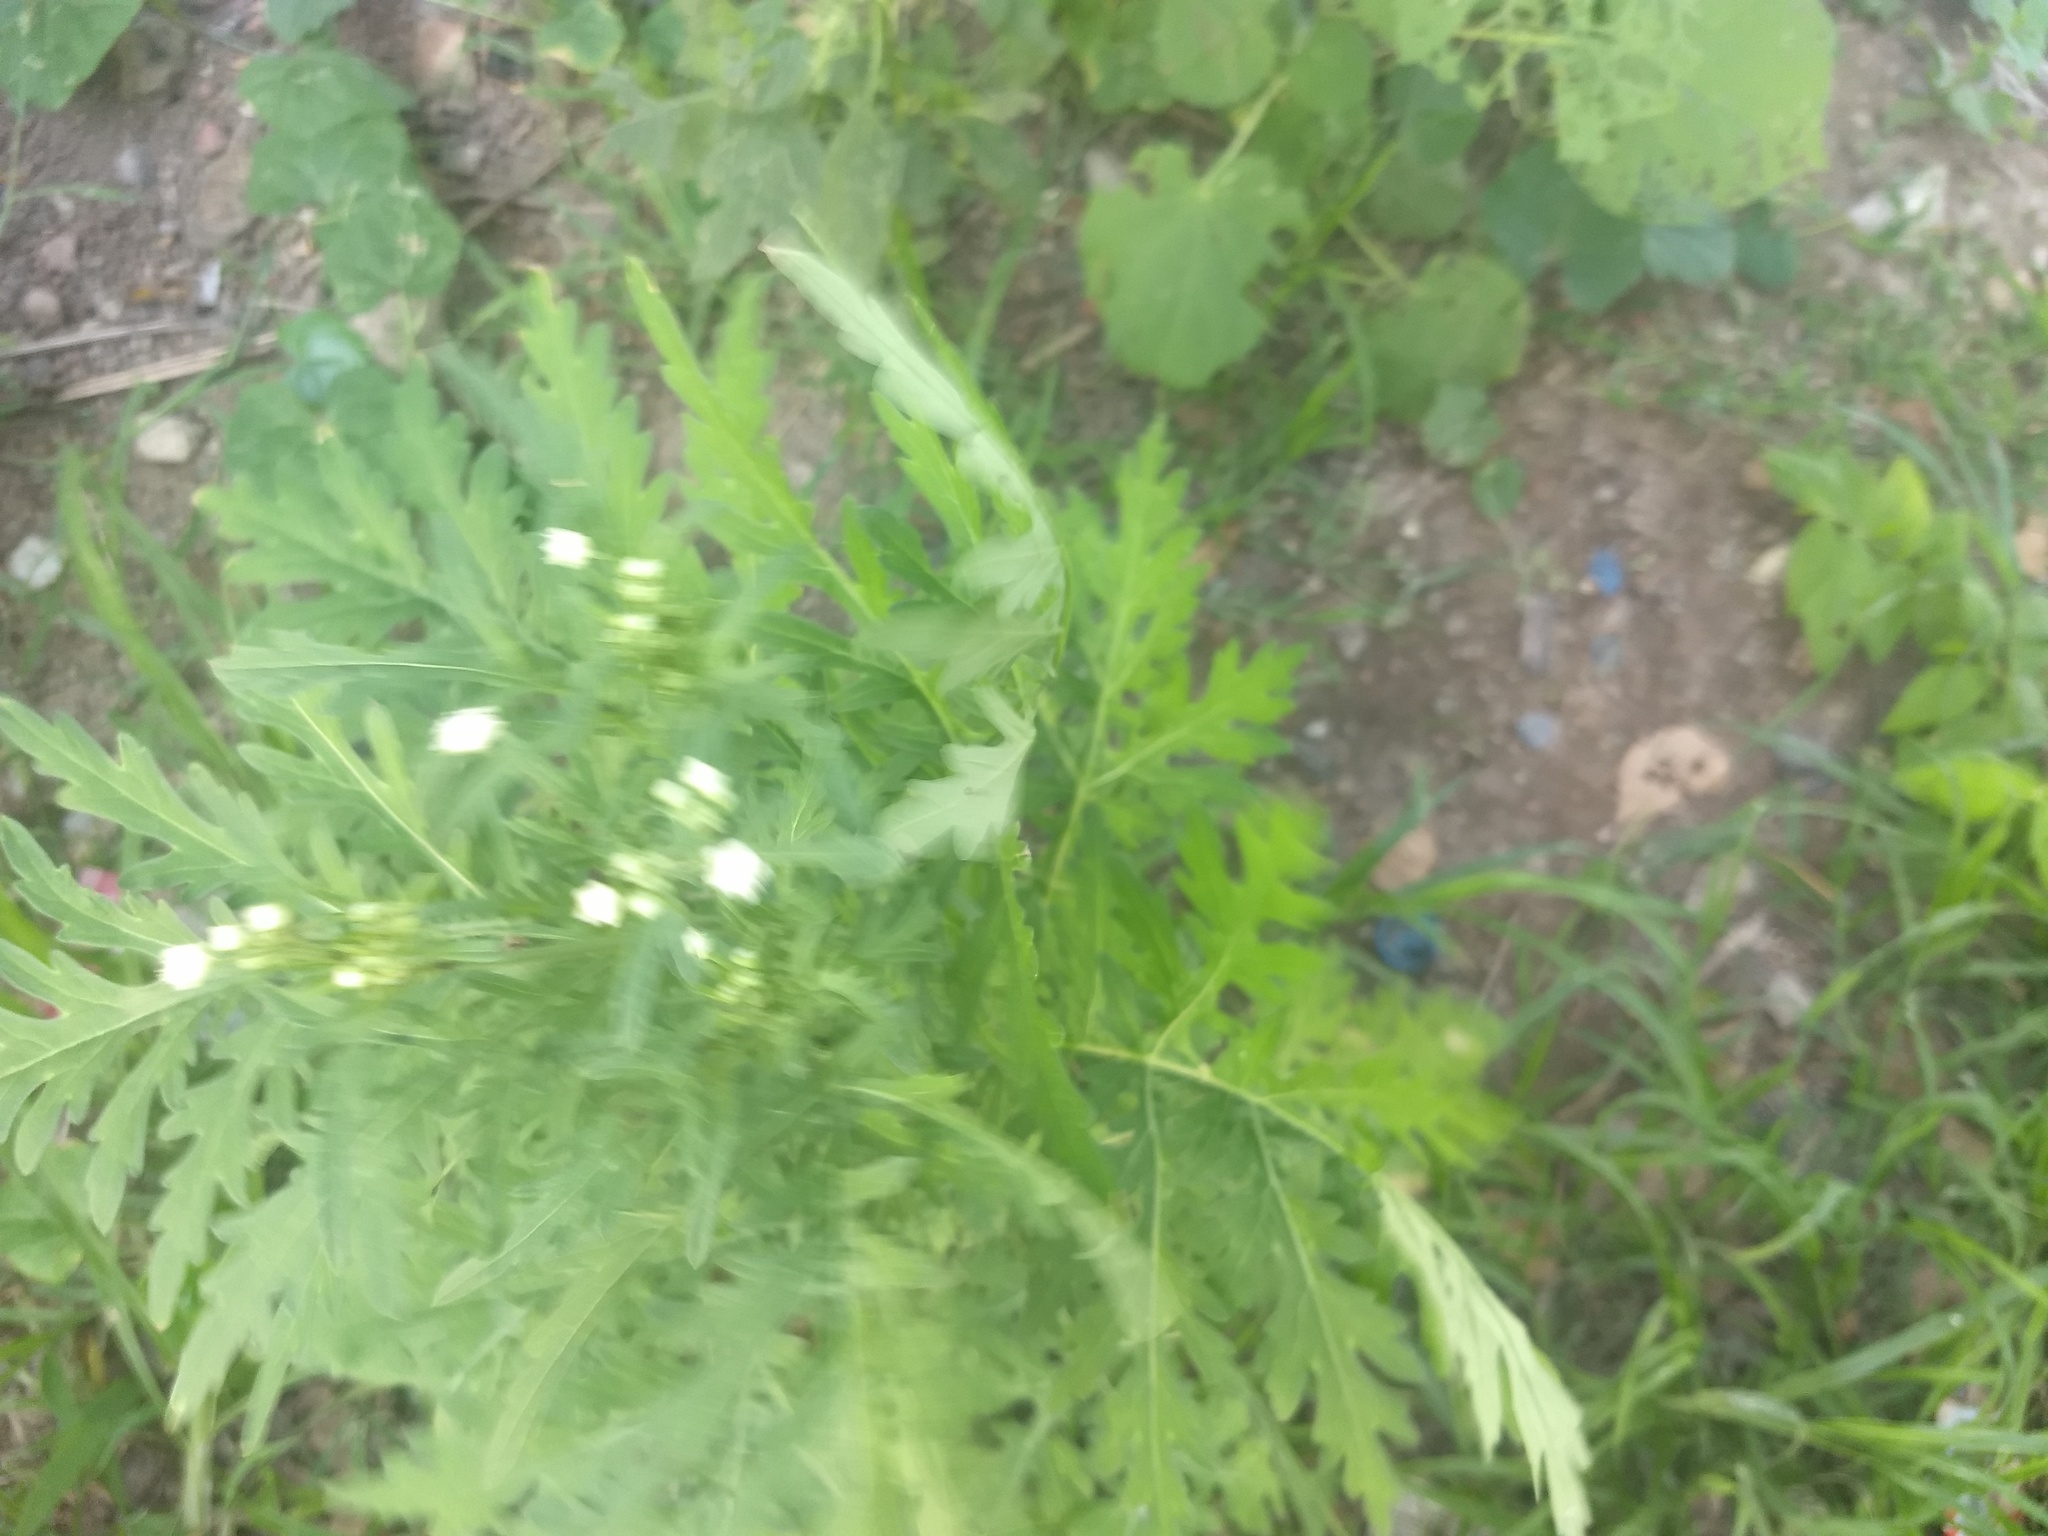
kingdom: Plantae
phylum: Tracheophyta
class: Magnoliopsida
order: Asterales
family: Asteraceae
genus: Parthenium
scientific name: Parthenium hysterophorus
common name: Santa maria feverfew
